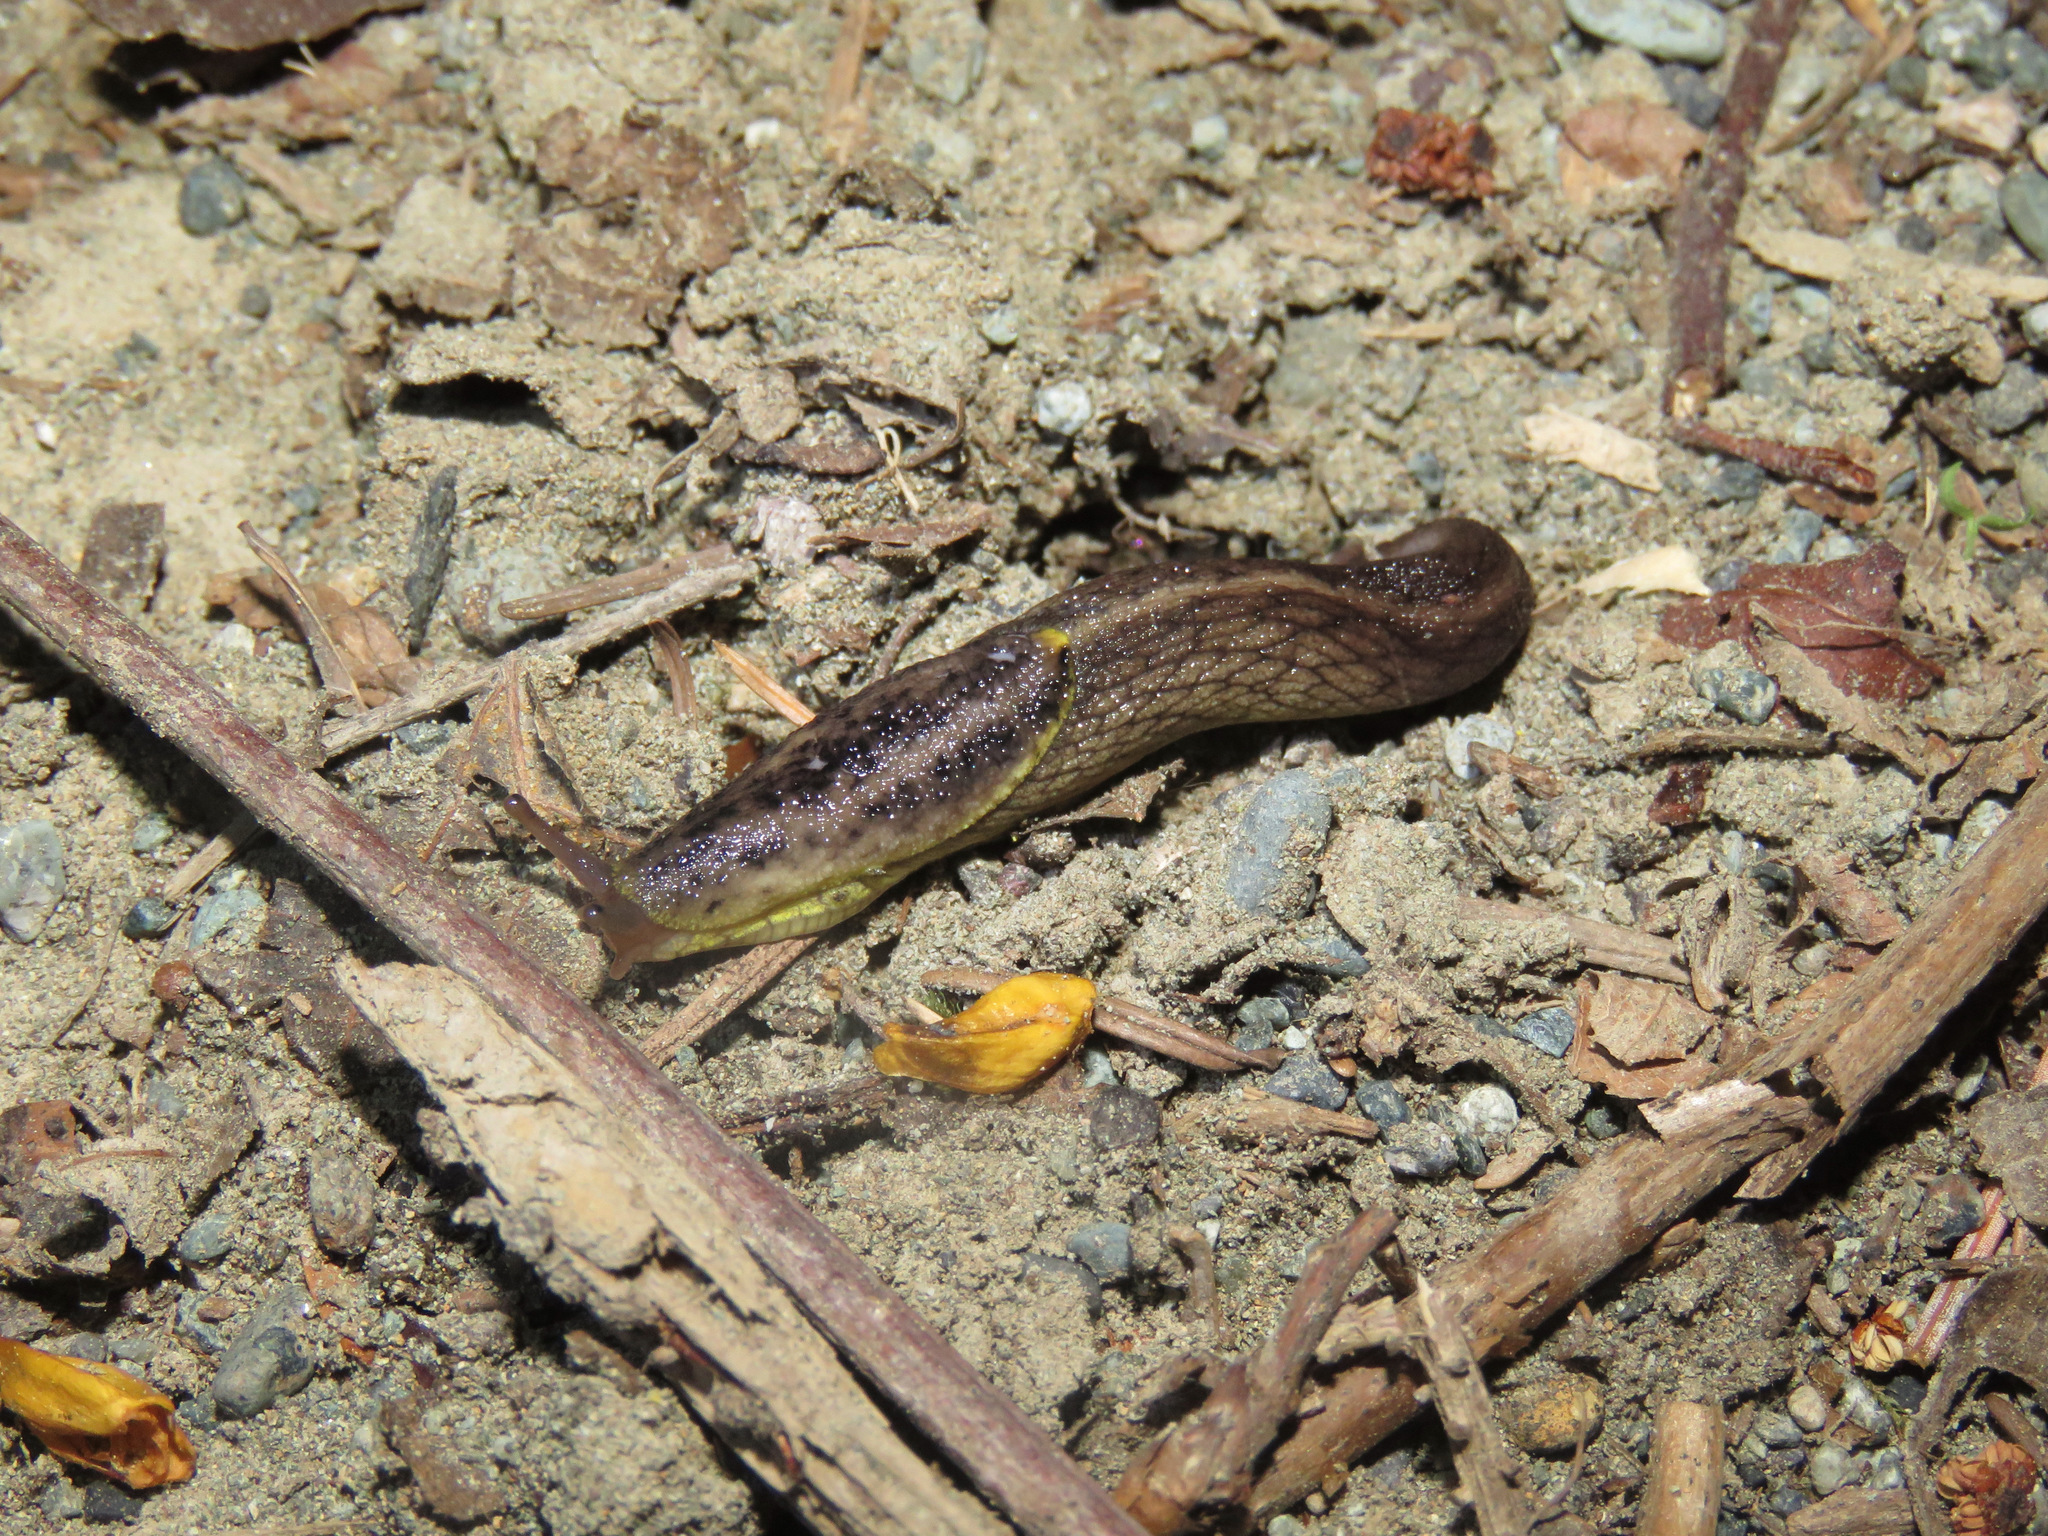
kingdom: Animalia
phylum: Mollusca
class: Gastropoda
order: Stylommatophora
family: Ariolimacidae
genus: Prophysaon
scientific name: Prophysaon foliolatum
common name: Yellow-bordered taildropper
